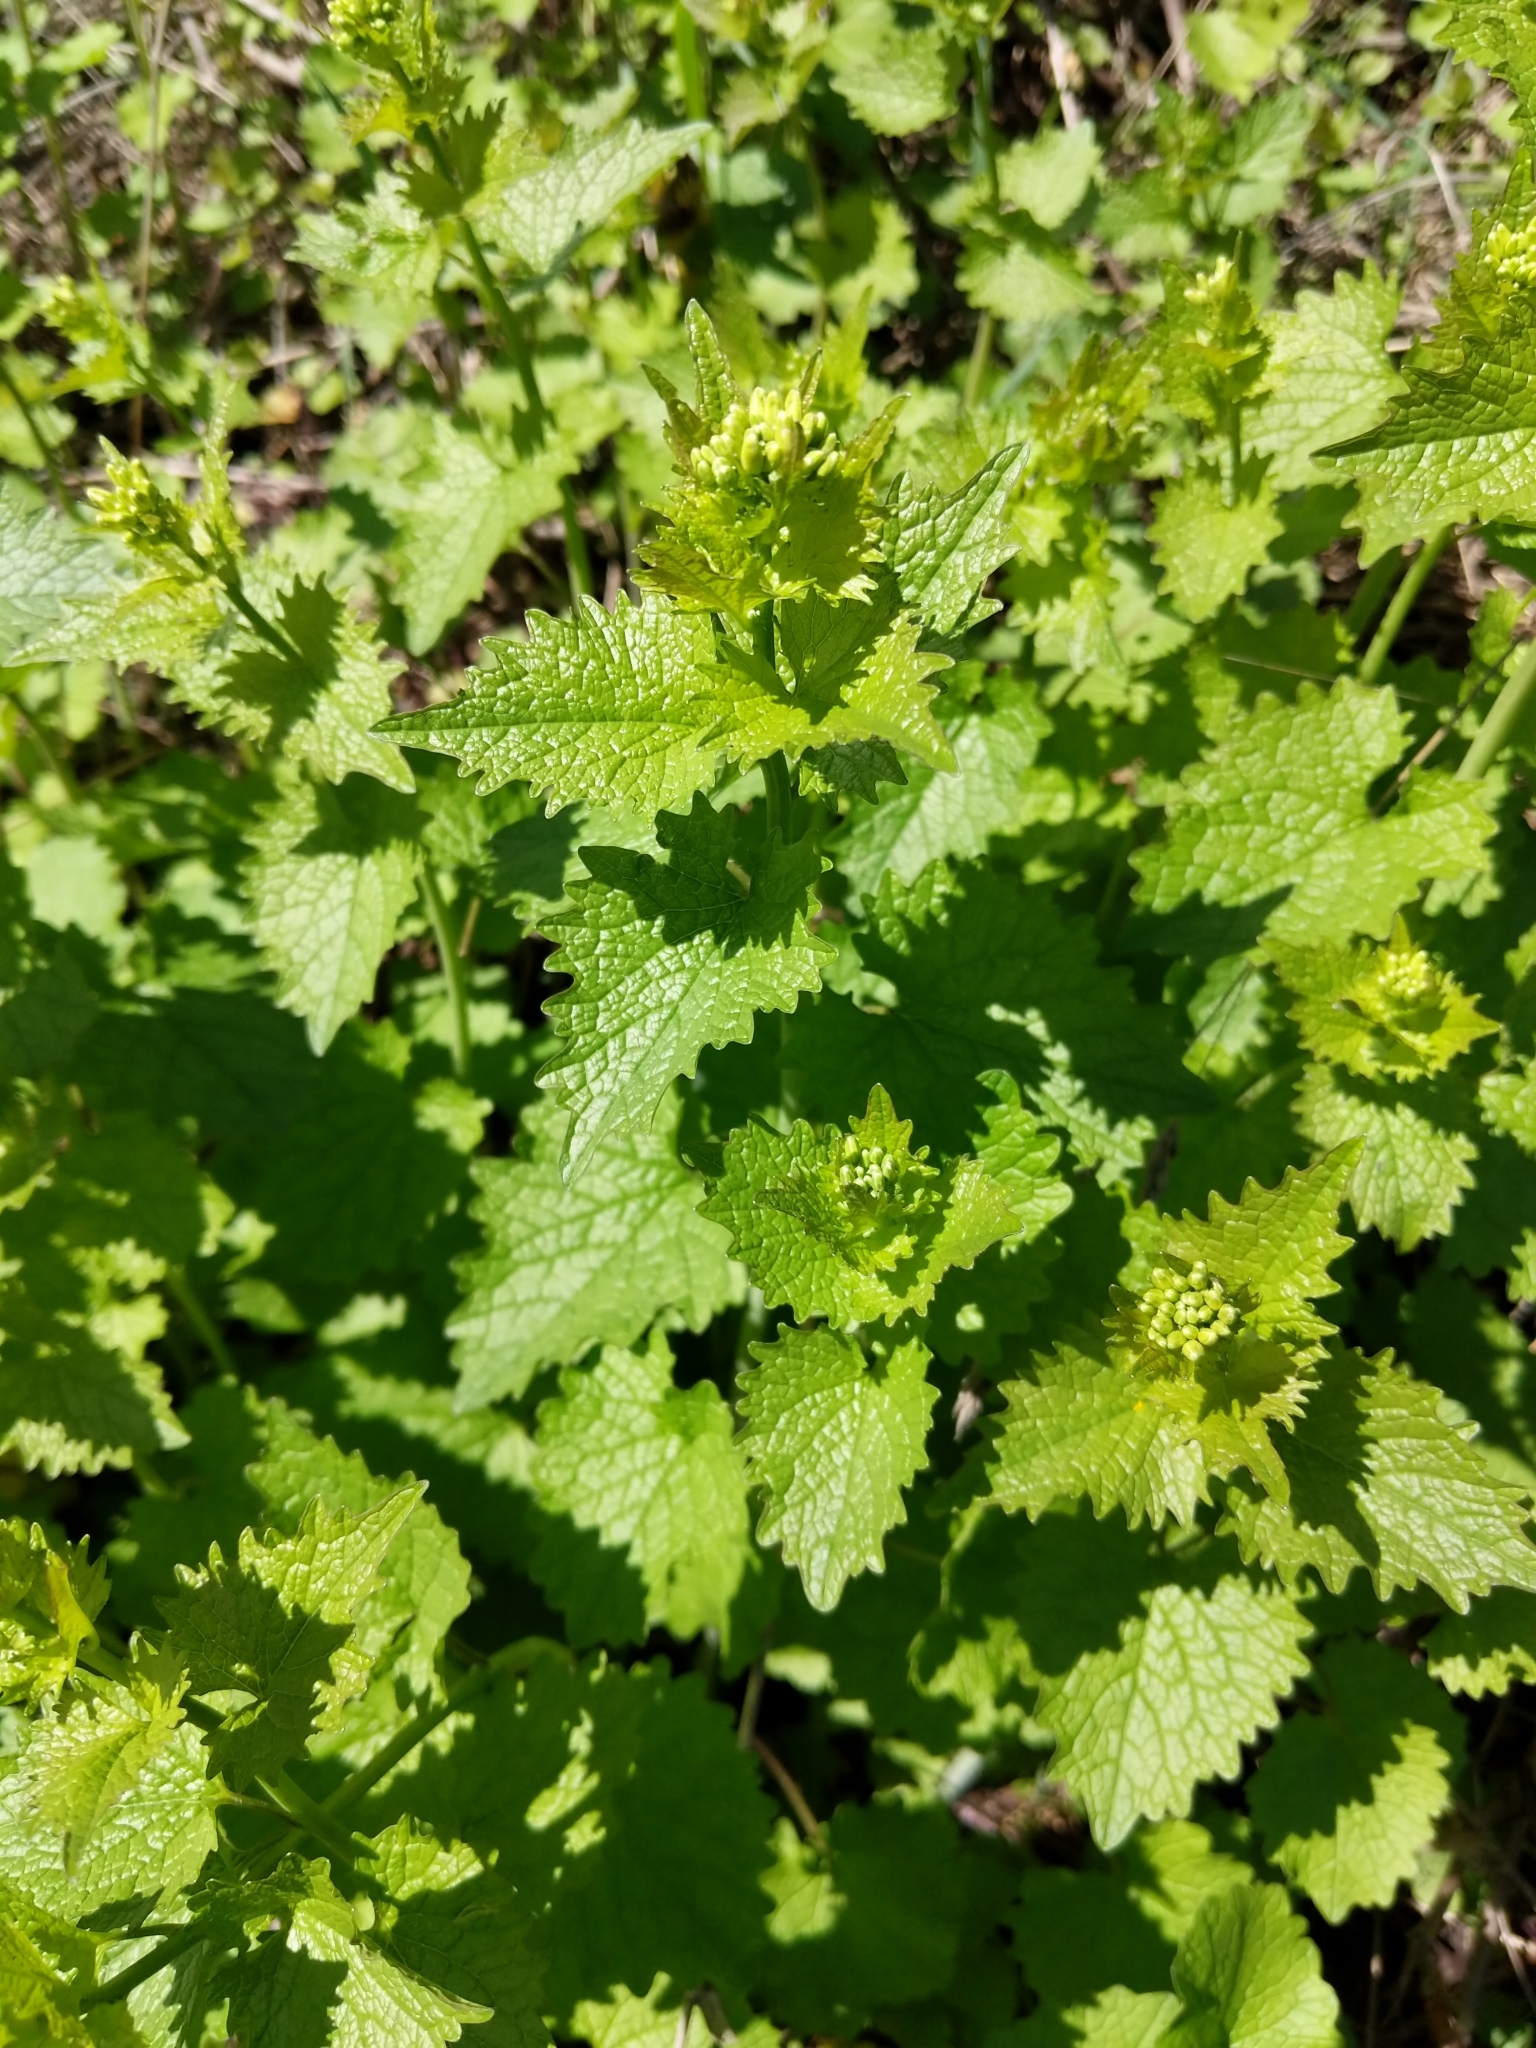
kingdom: Plantae
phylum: Tracheophyta
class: Magnoliopsida
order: Brassicales
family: Brassicaceae
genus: Alliaria
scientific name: Alliaria petiolata
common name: Garlic mustard
